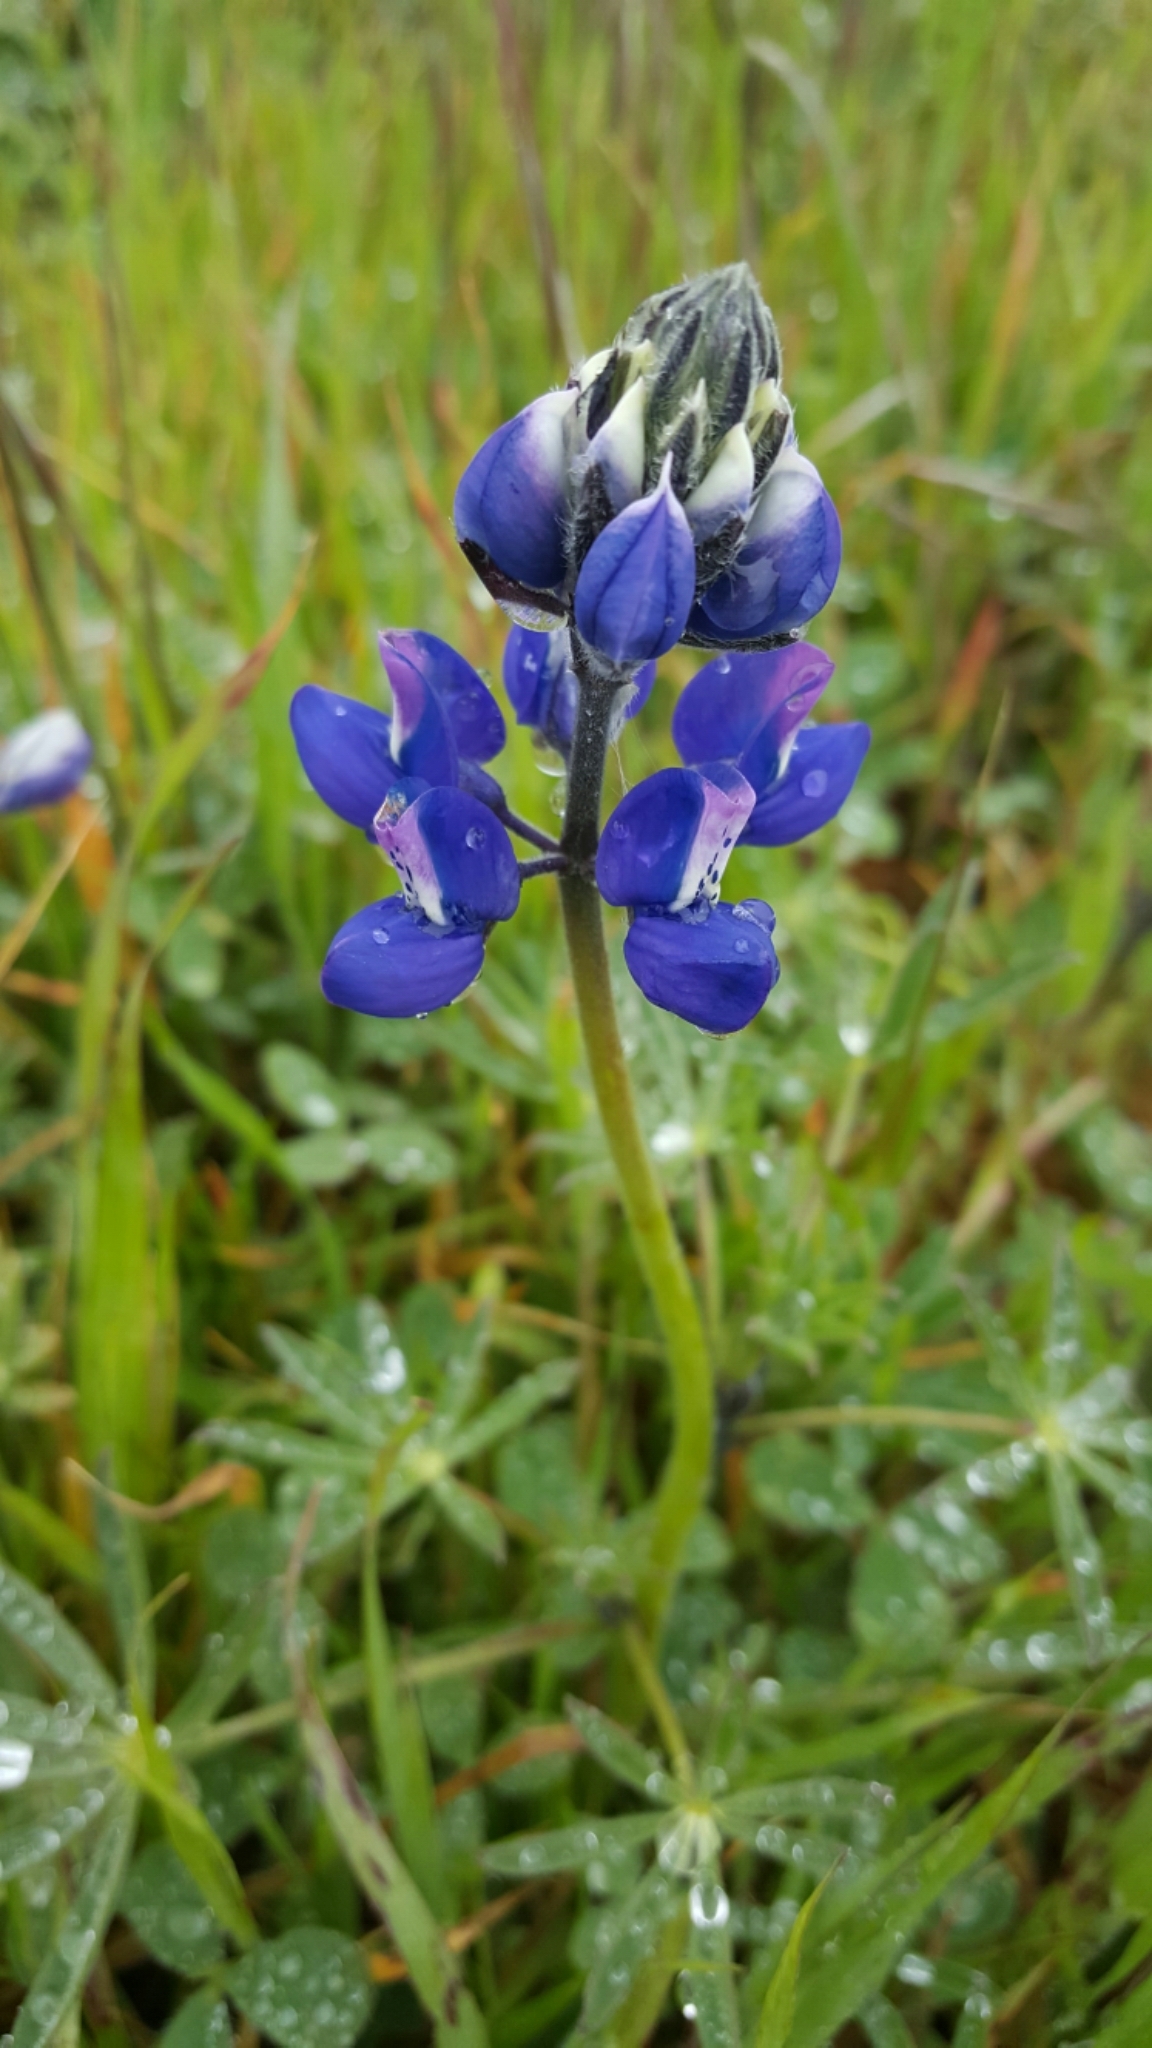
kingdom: Plantae
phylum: Tracheophyta
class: Magnoliopsida
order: Fabales
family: Fabaceae
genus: Lupinus
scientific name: Lupinus nanus
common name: Orean blue lupin
